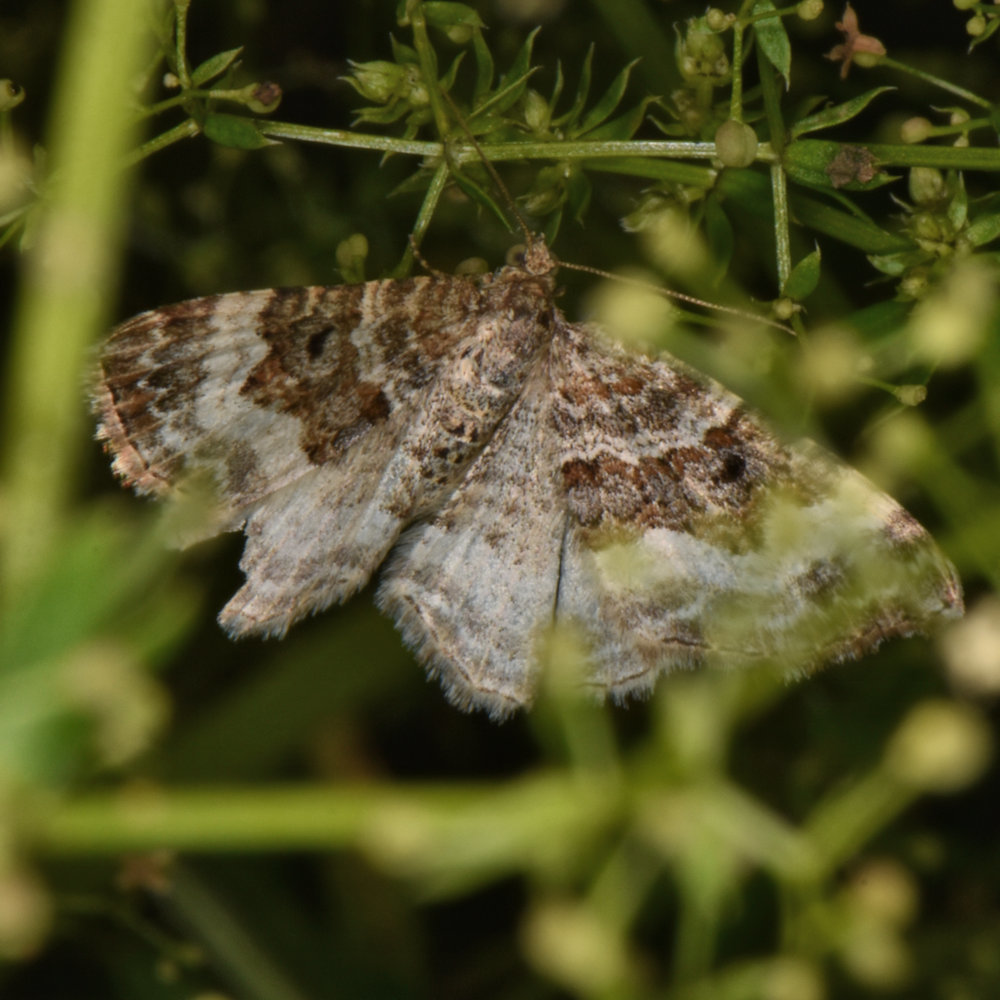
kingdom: Animalia
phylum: Arthropoda
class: Insecta
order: Lepidoptera
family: Geometridae
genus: Epirrhoe
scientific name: Epirrhoe alternata
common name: Common carpet
